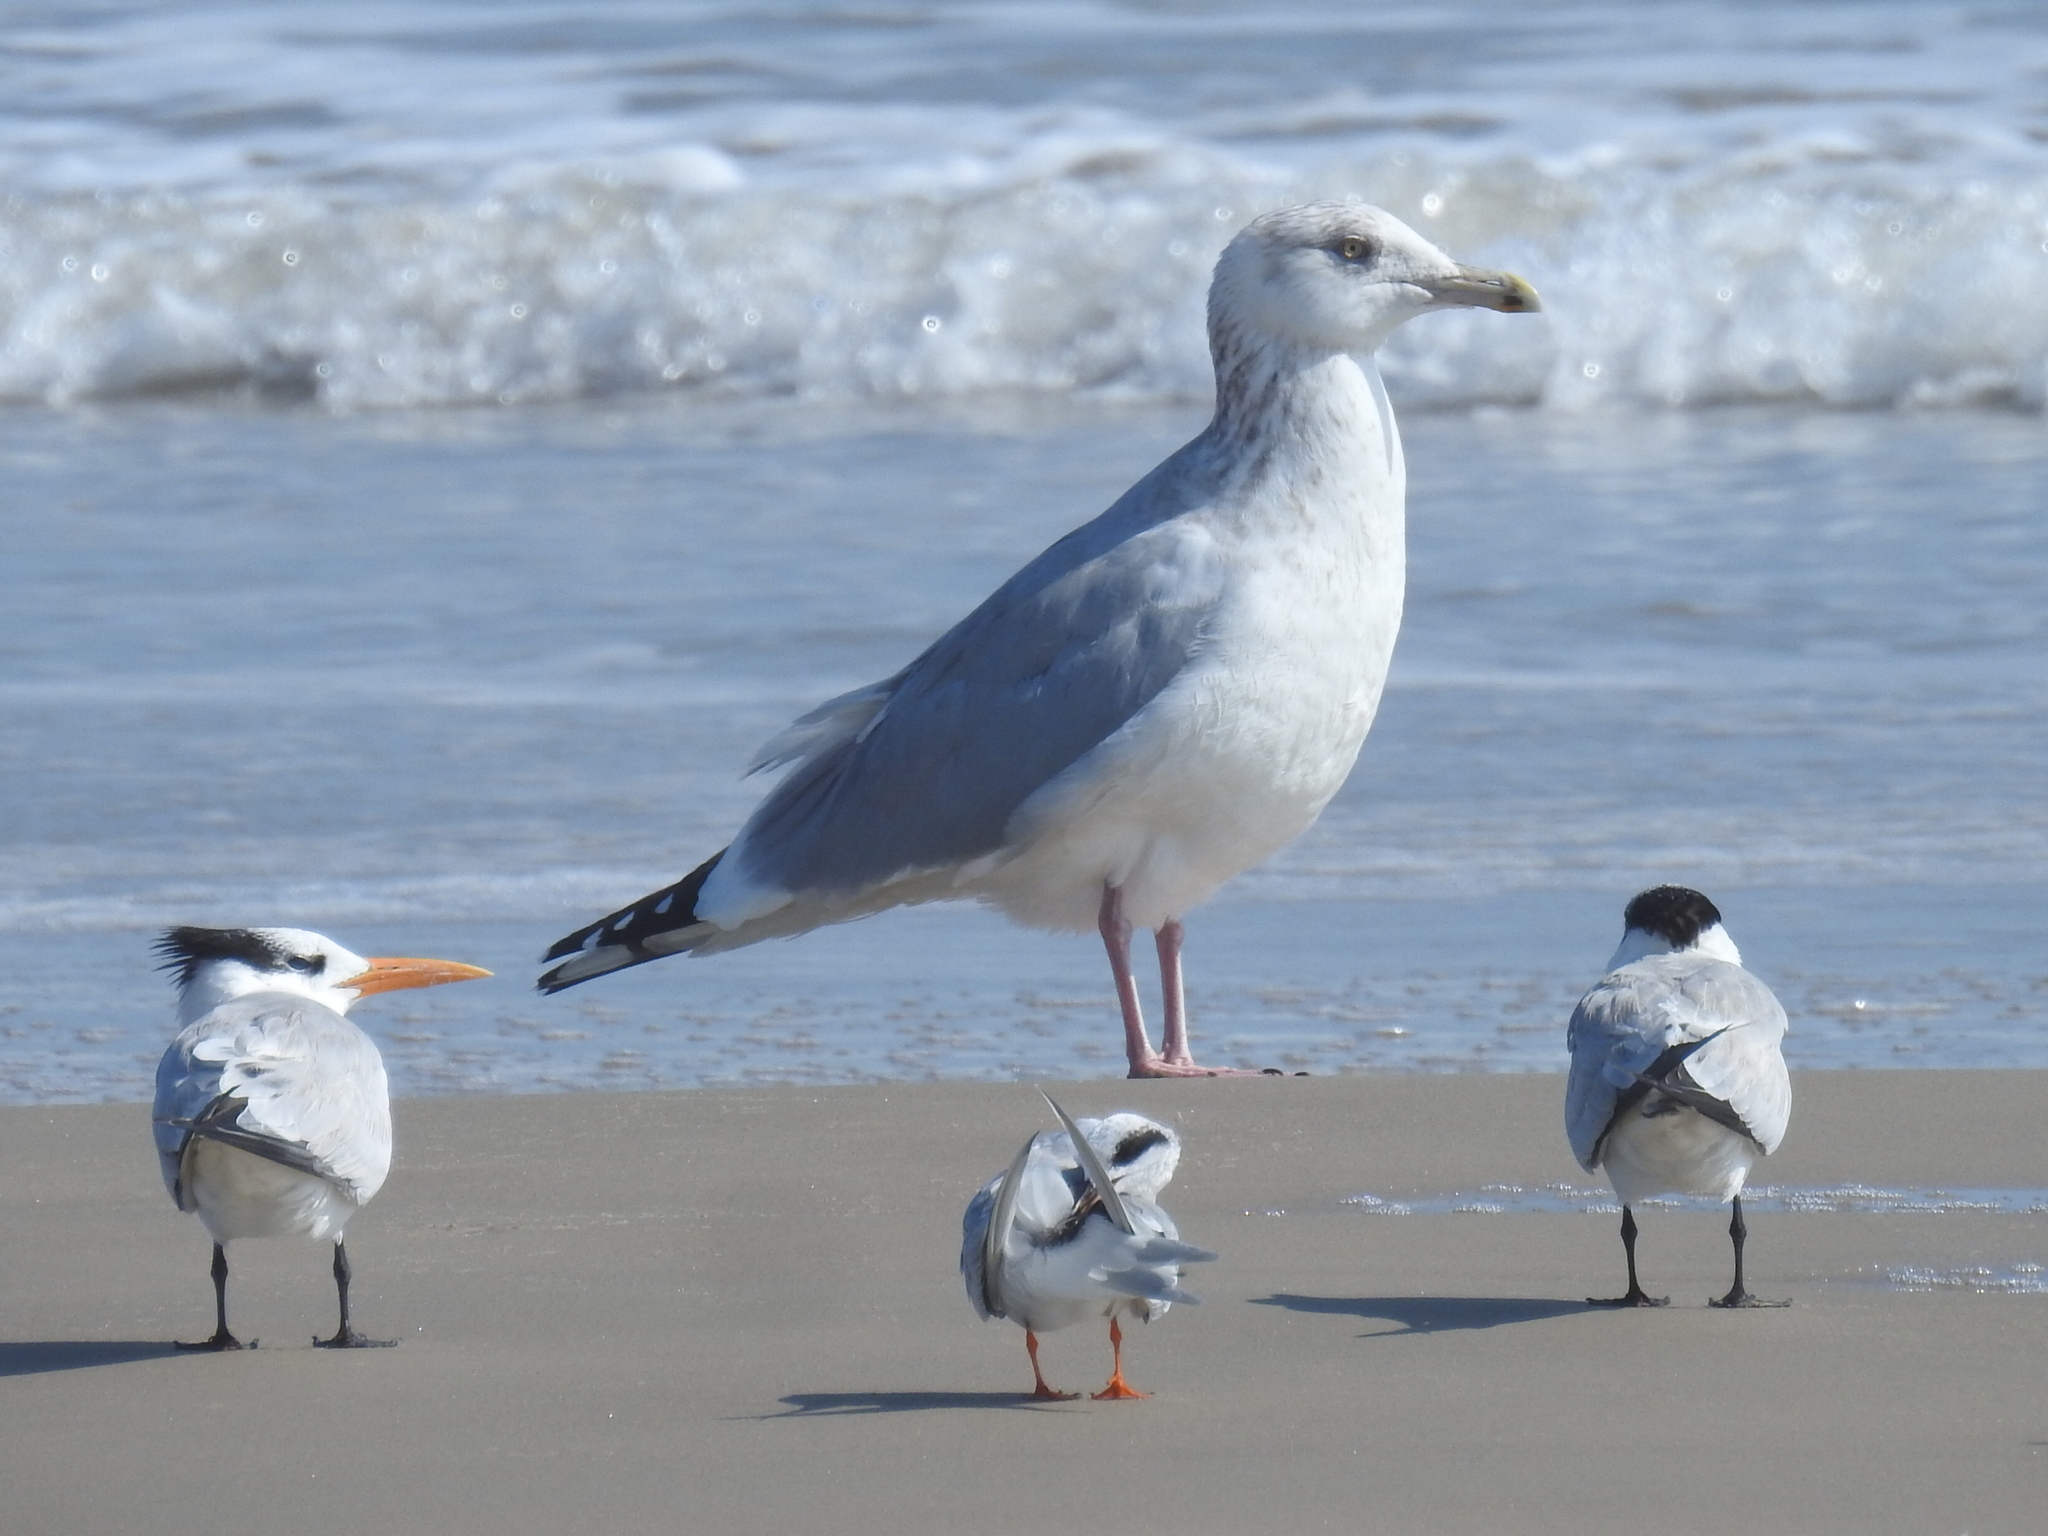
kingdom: Animalia
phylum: Chordata
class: Aves
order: Charadriiformes
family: Laridae
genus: Larus
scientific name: Larus argentatus
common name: Herring gull
